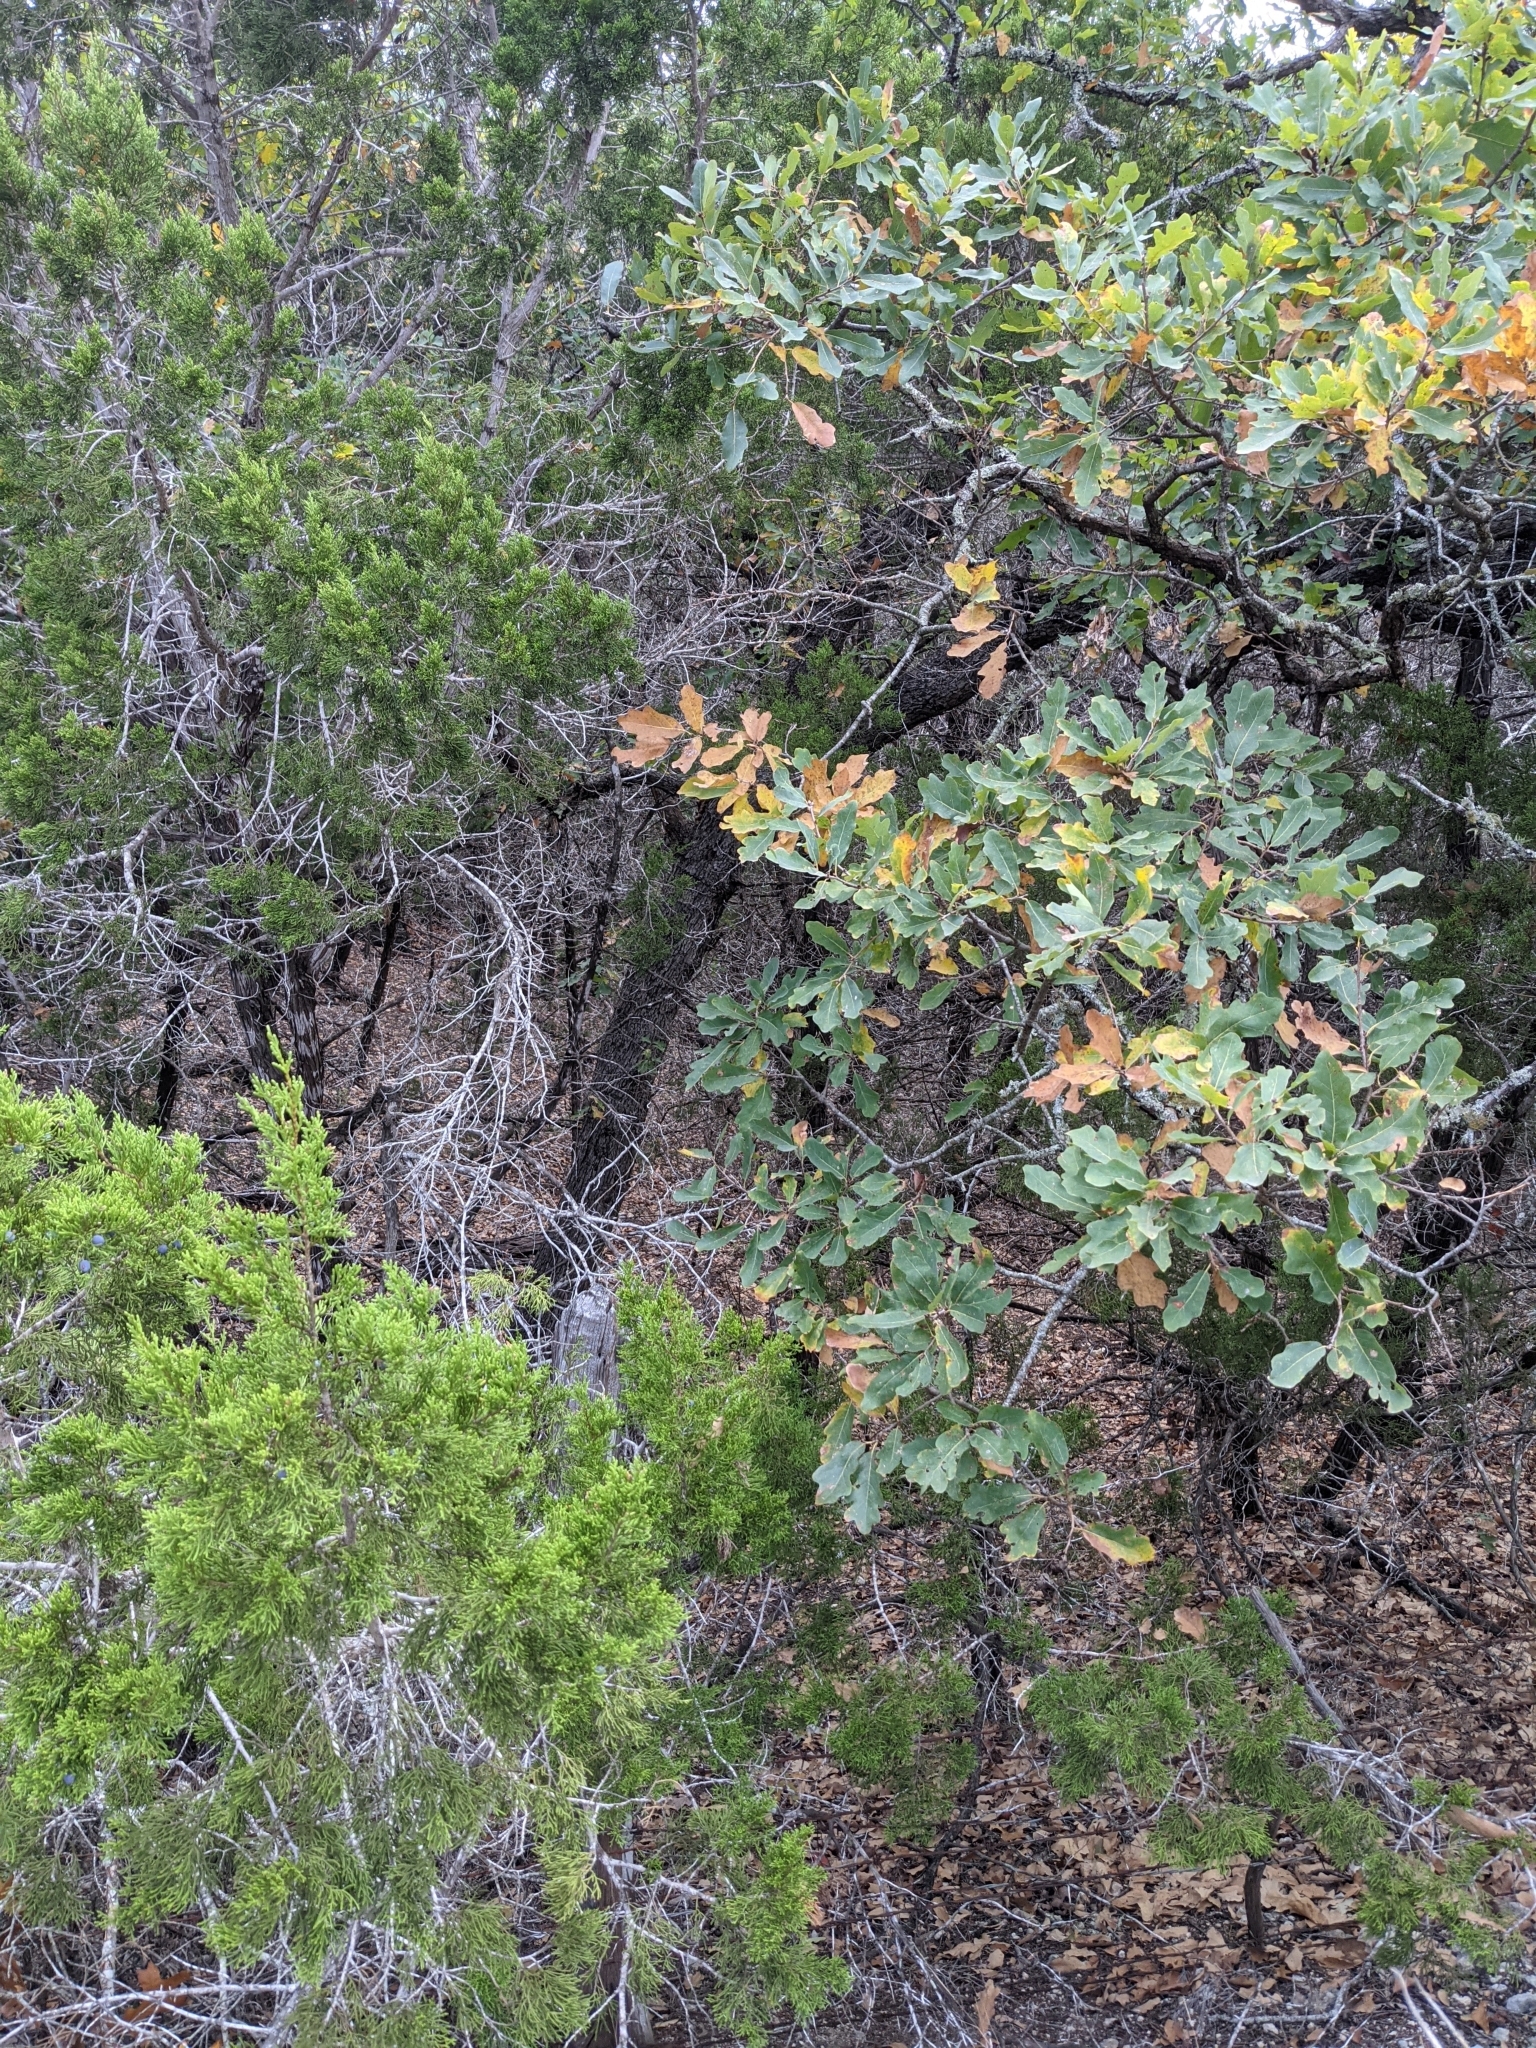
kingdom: Plantae
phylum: Tracheophyta
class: Magnoliopsida
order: Fagales
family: Fagaceae
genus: Quercus
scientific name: Quercus laceyi
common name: Lacey oak
